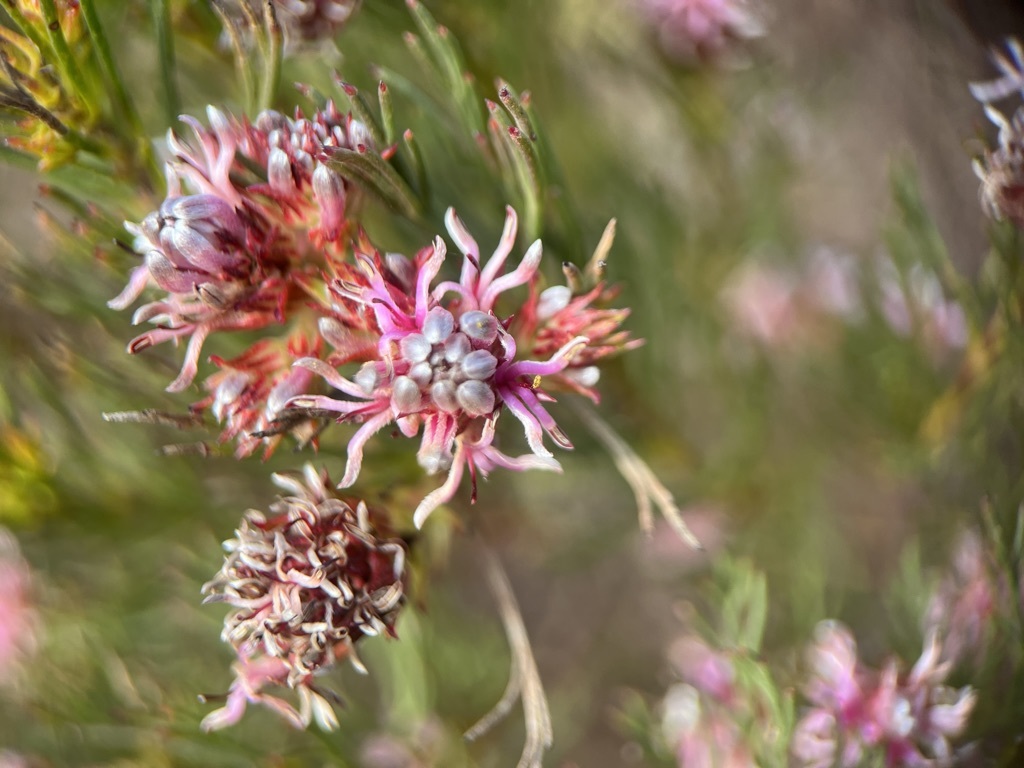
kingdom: Plantae
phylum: Tracheophyta
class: Magnoliopsida
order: Proteales
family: Proteaceae
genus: Serruria
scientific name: Serruria bolusii
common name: Agulhas spiderhead
